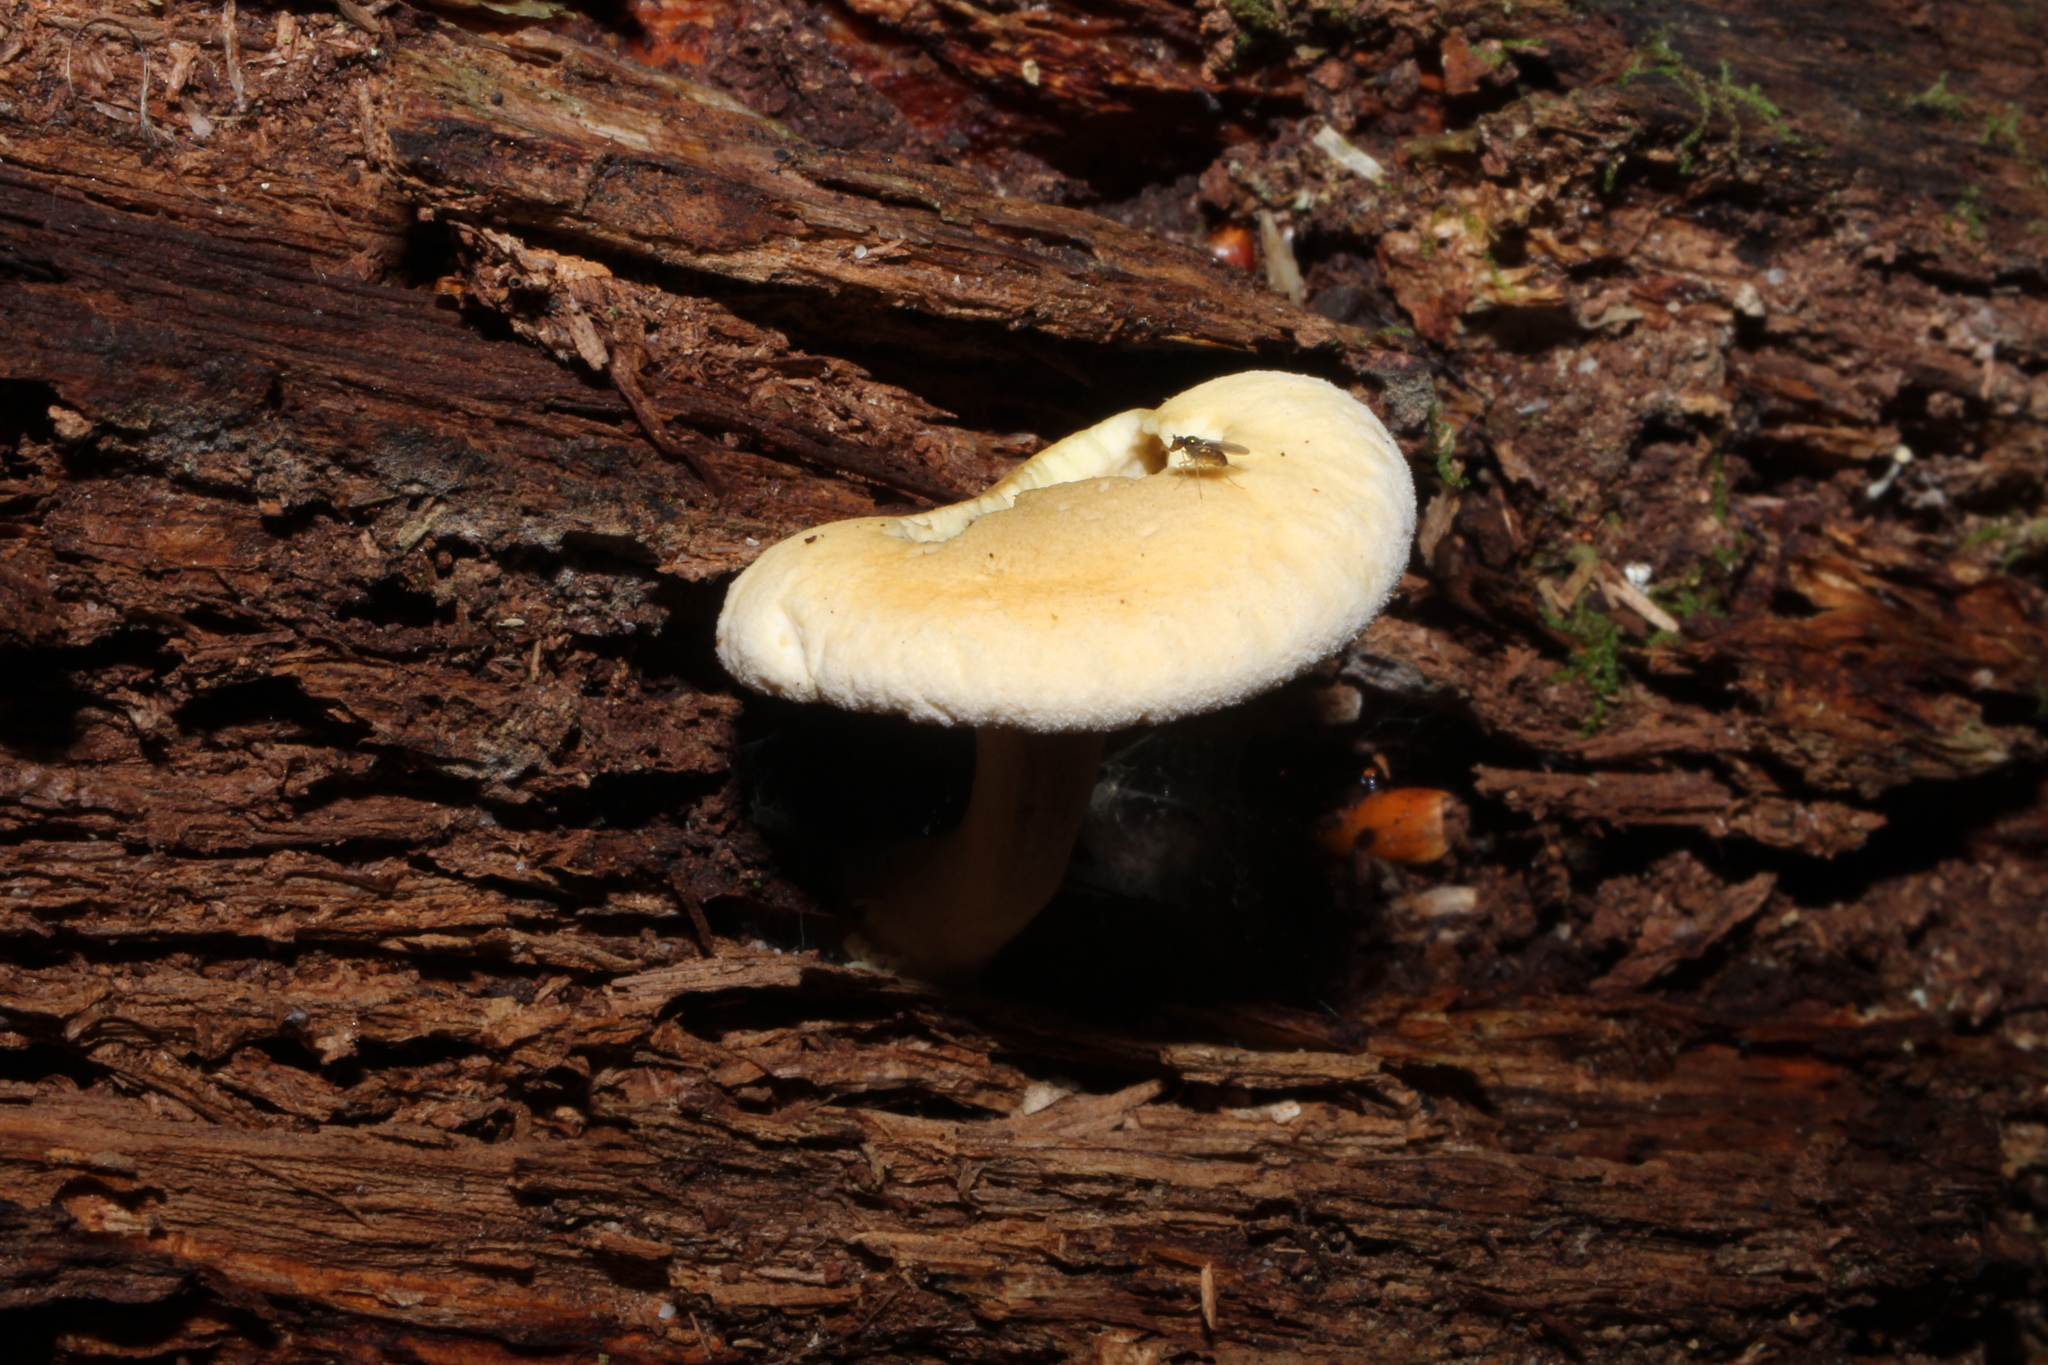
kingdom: Fungi
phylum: Basidiomycota
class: Agaricomycetes
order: Boletales
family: Hygrophoropsidaceae
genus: Hygrophoropsis
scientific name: Hygrophoropsis aurantiaca
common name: False chanterelle
